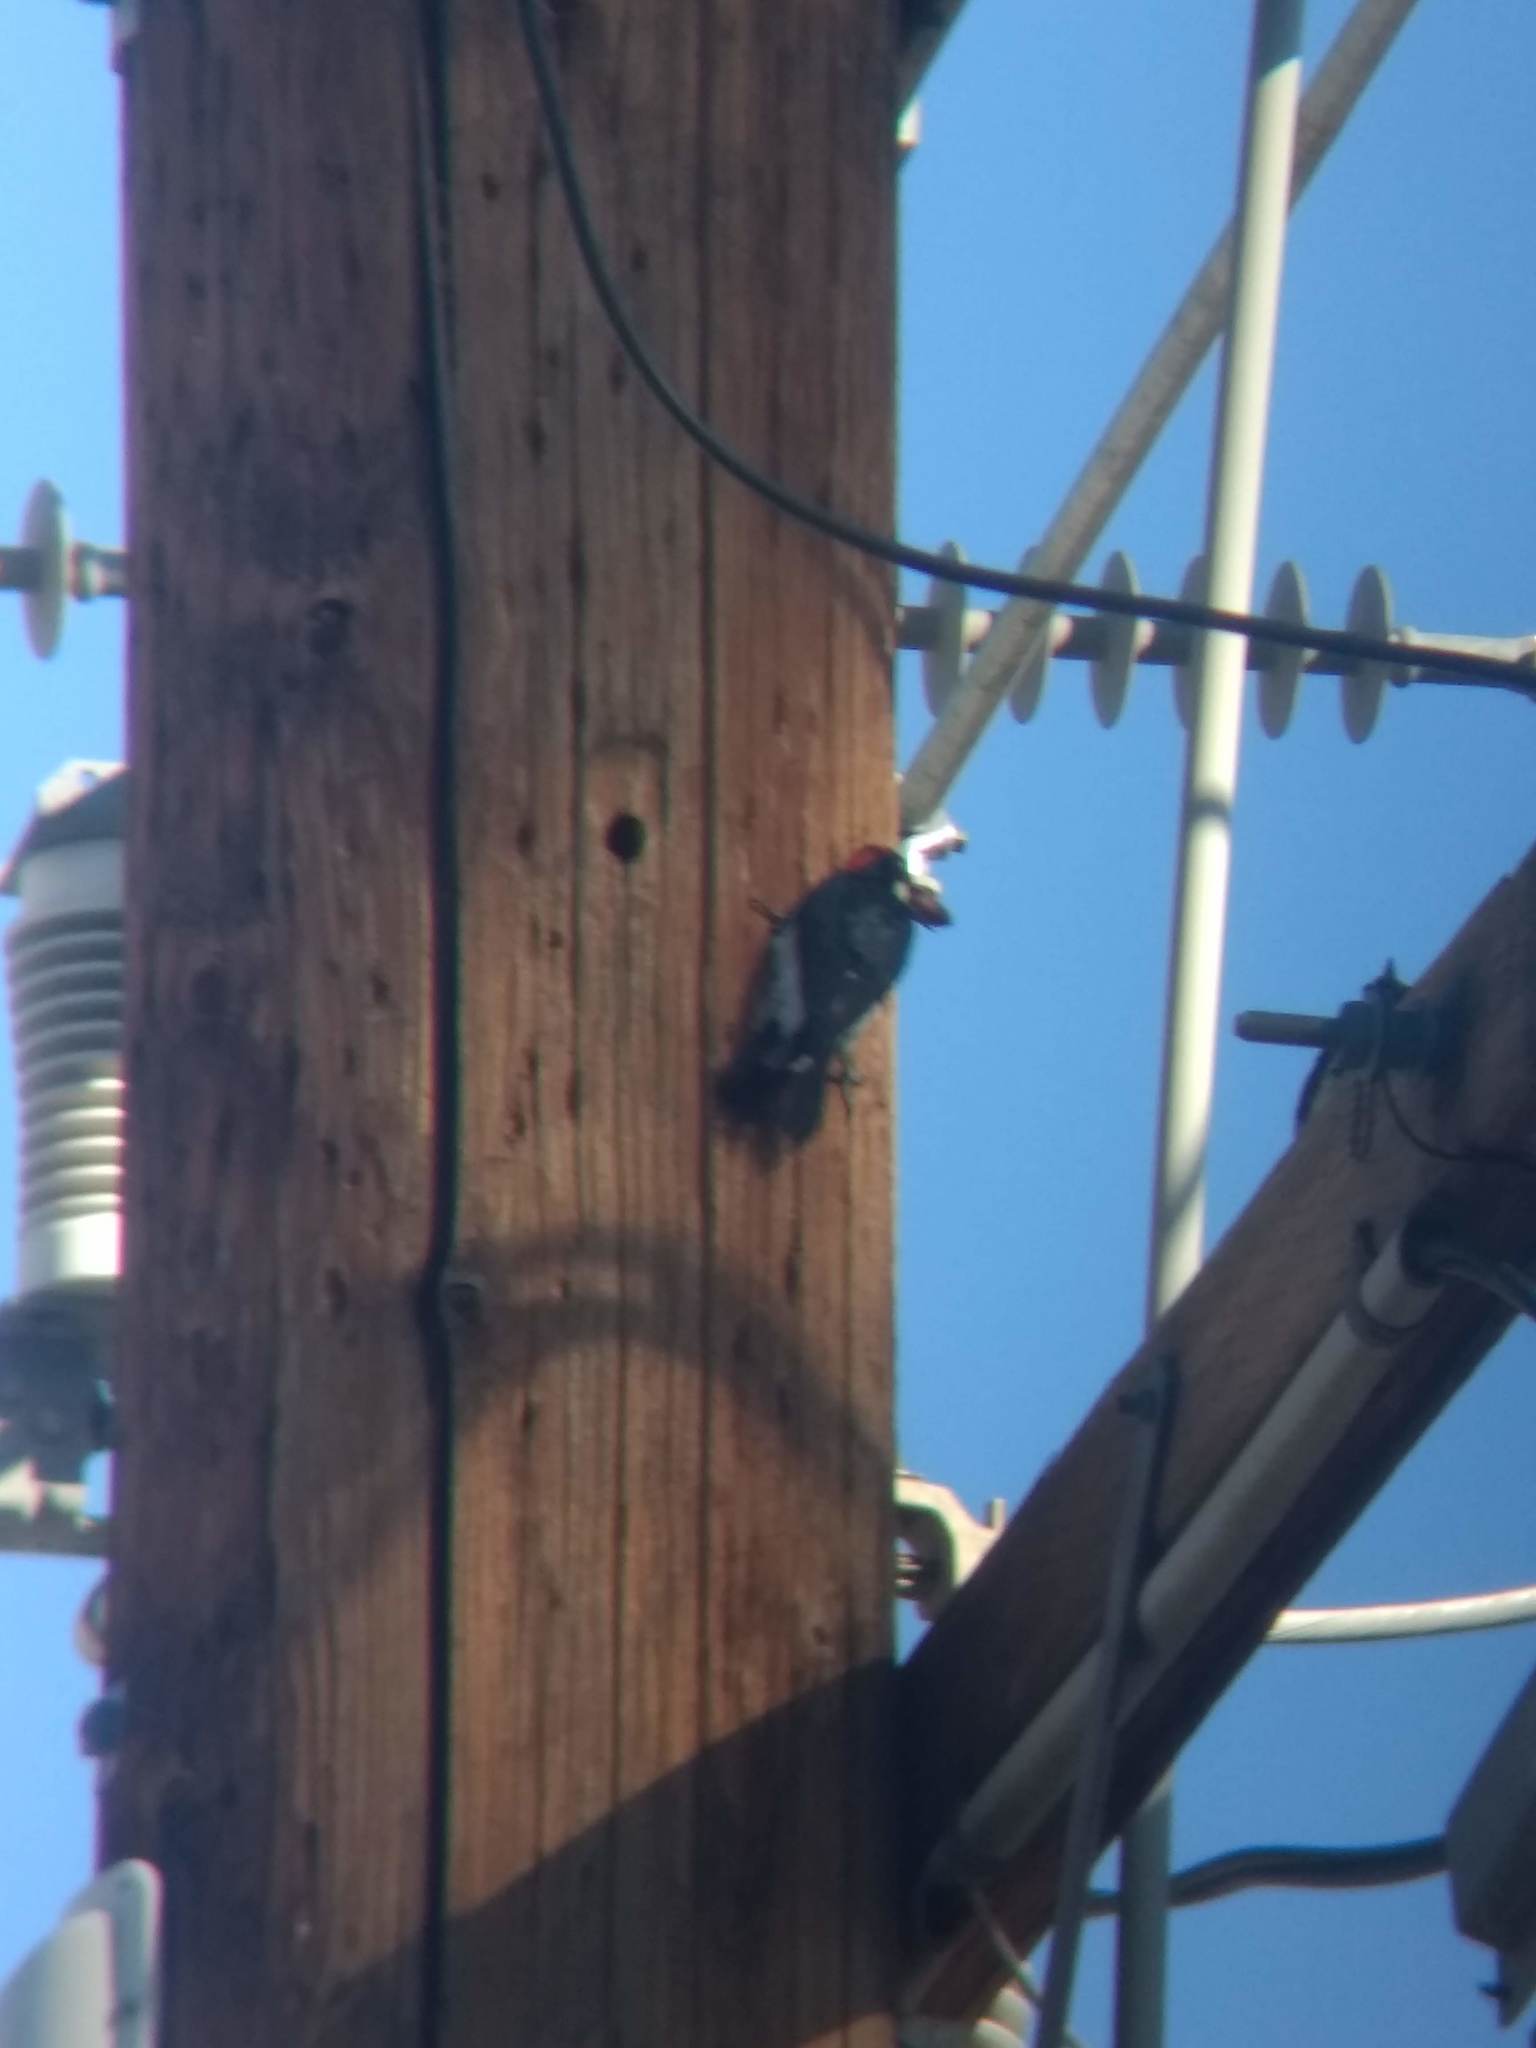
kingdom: Animalia
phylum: Chordata
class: Aves
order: Piciformes
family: Picidae
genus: Melanerpes
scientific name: Melanerpes formicivorus
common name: Acorn woodpecker
